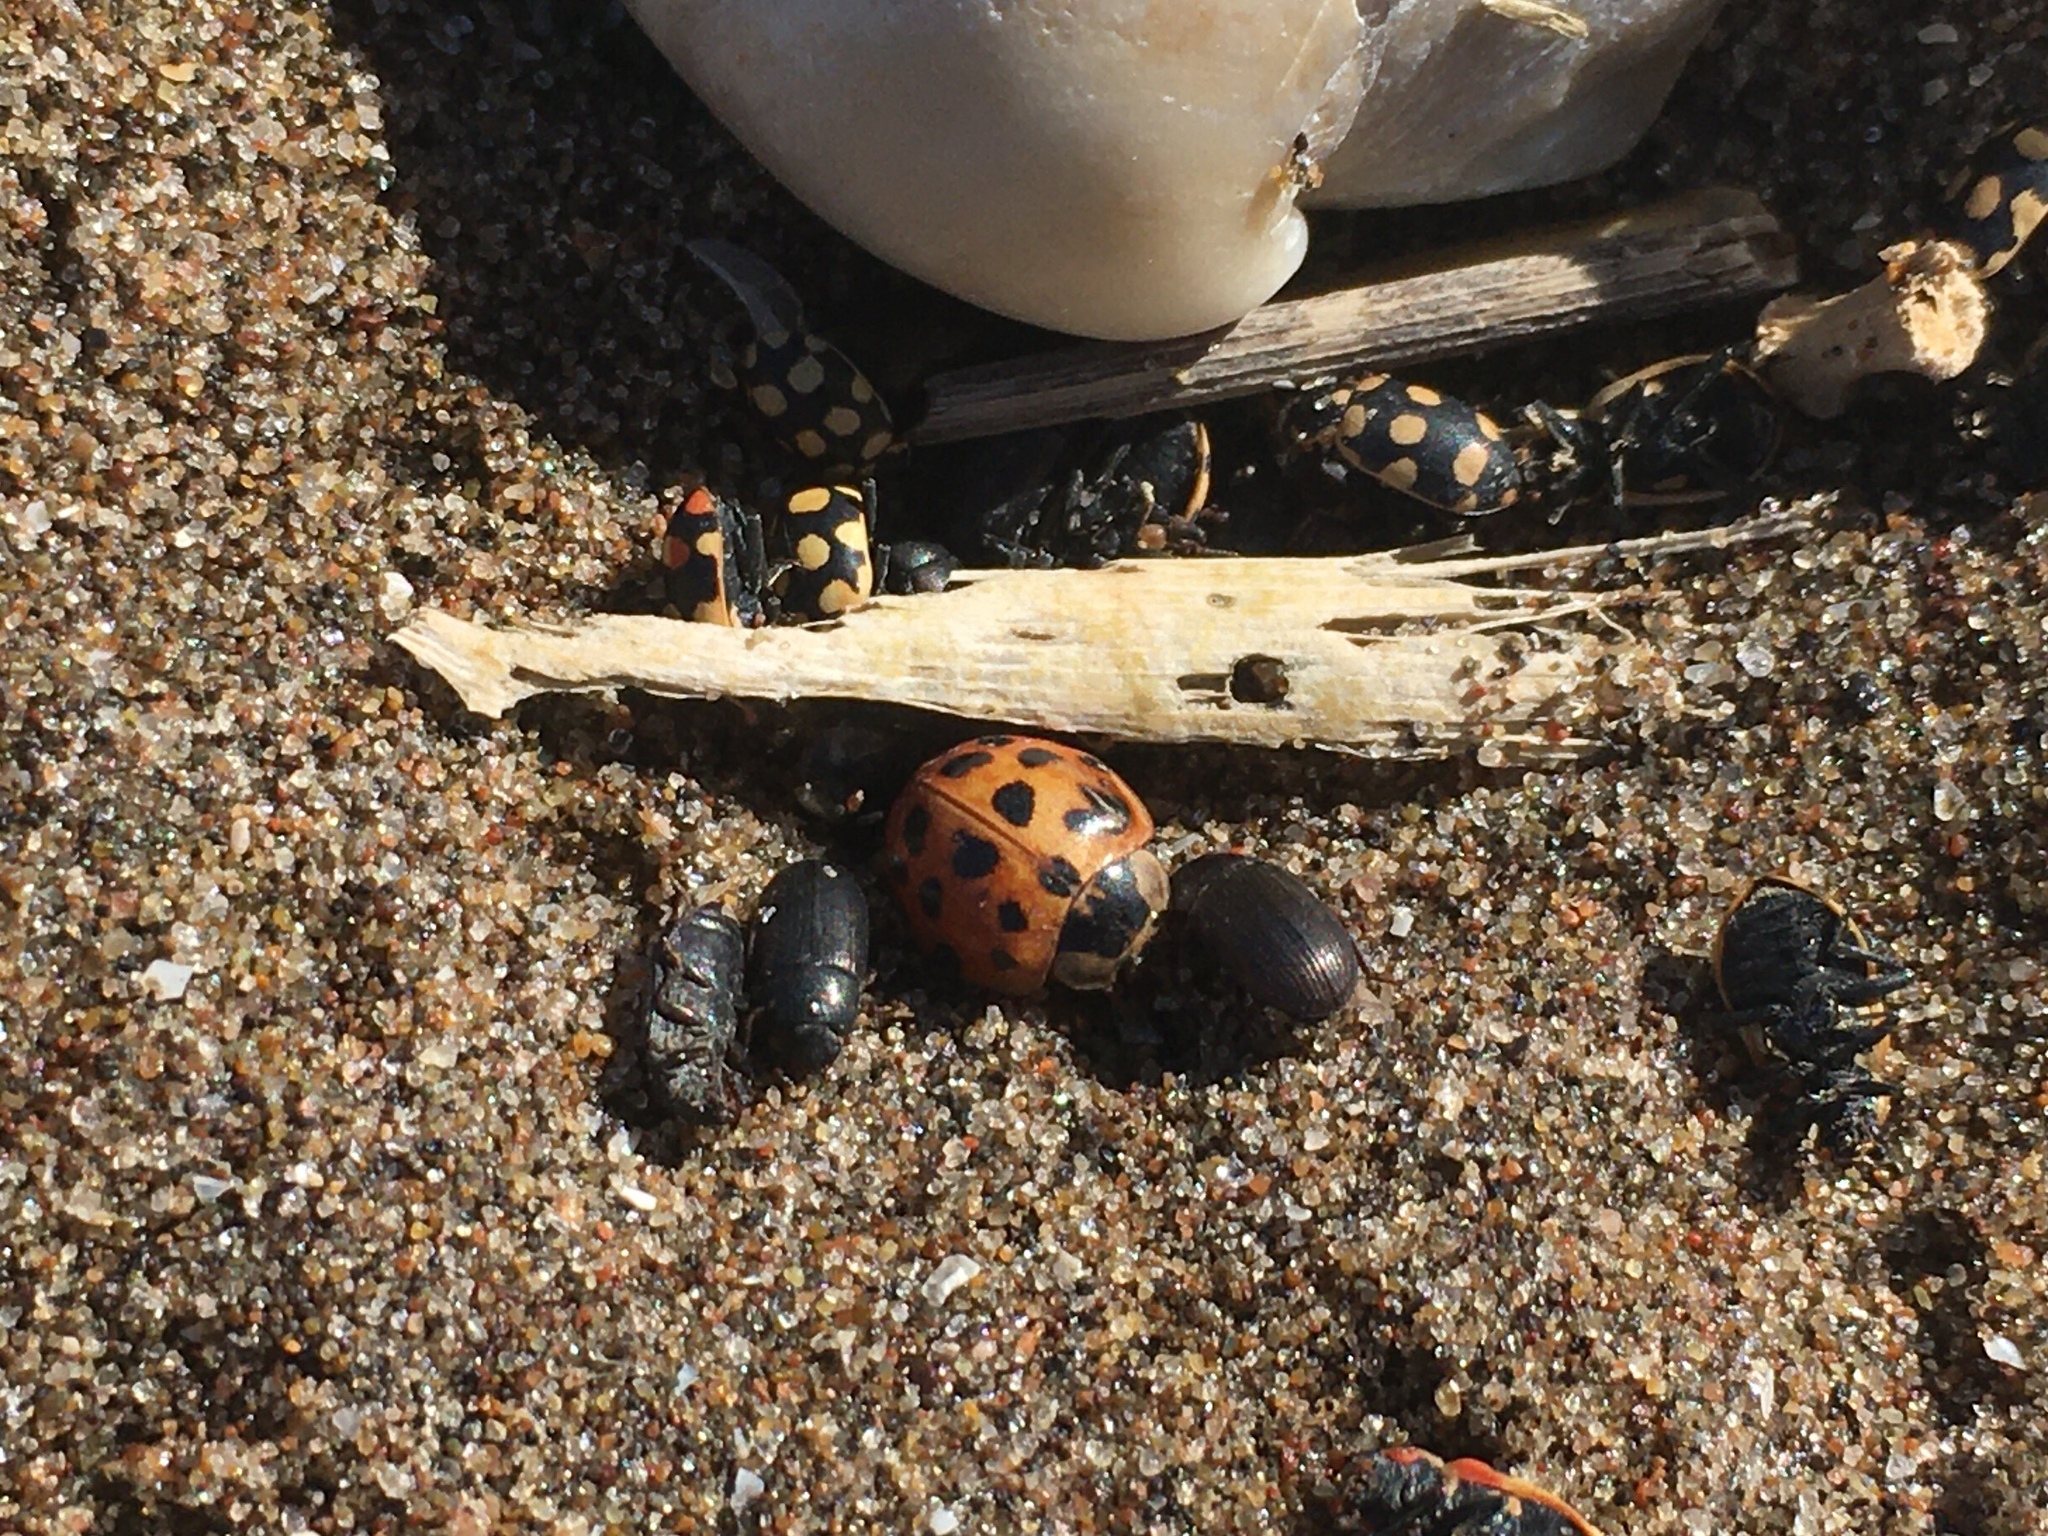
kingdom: Animalia
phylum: Arthropoda
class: Insecta
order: Coleoptera
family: Coccinellidae
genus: Harmonia
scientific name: Harmonia axyridis
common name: Harlequin ladybird
